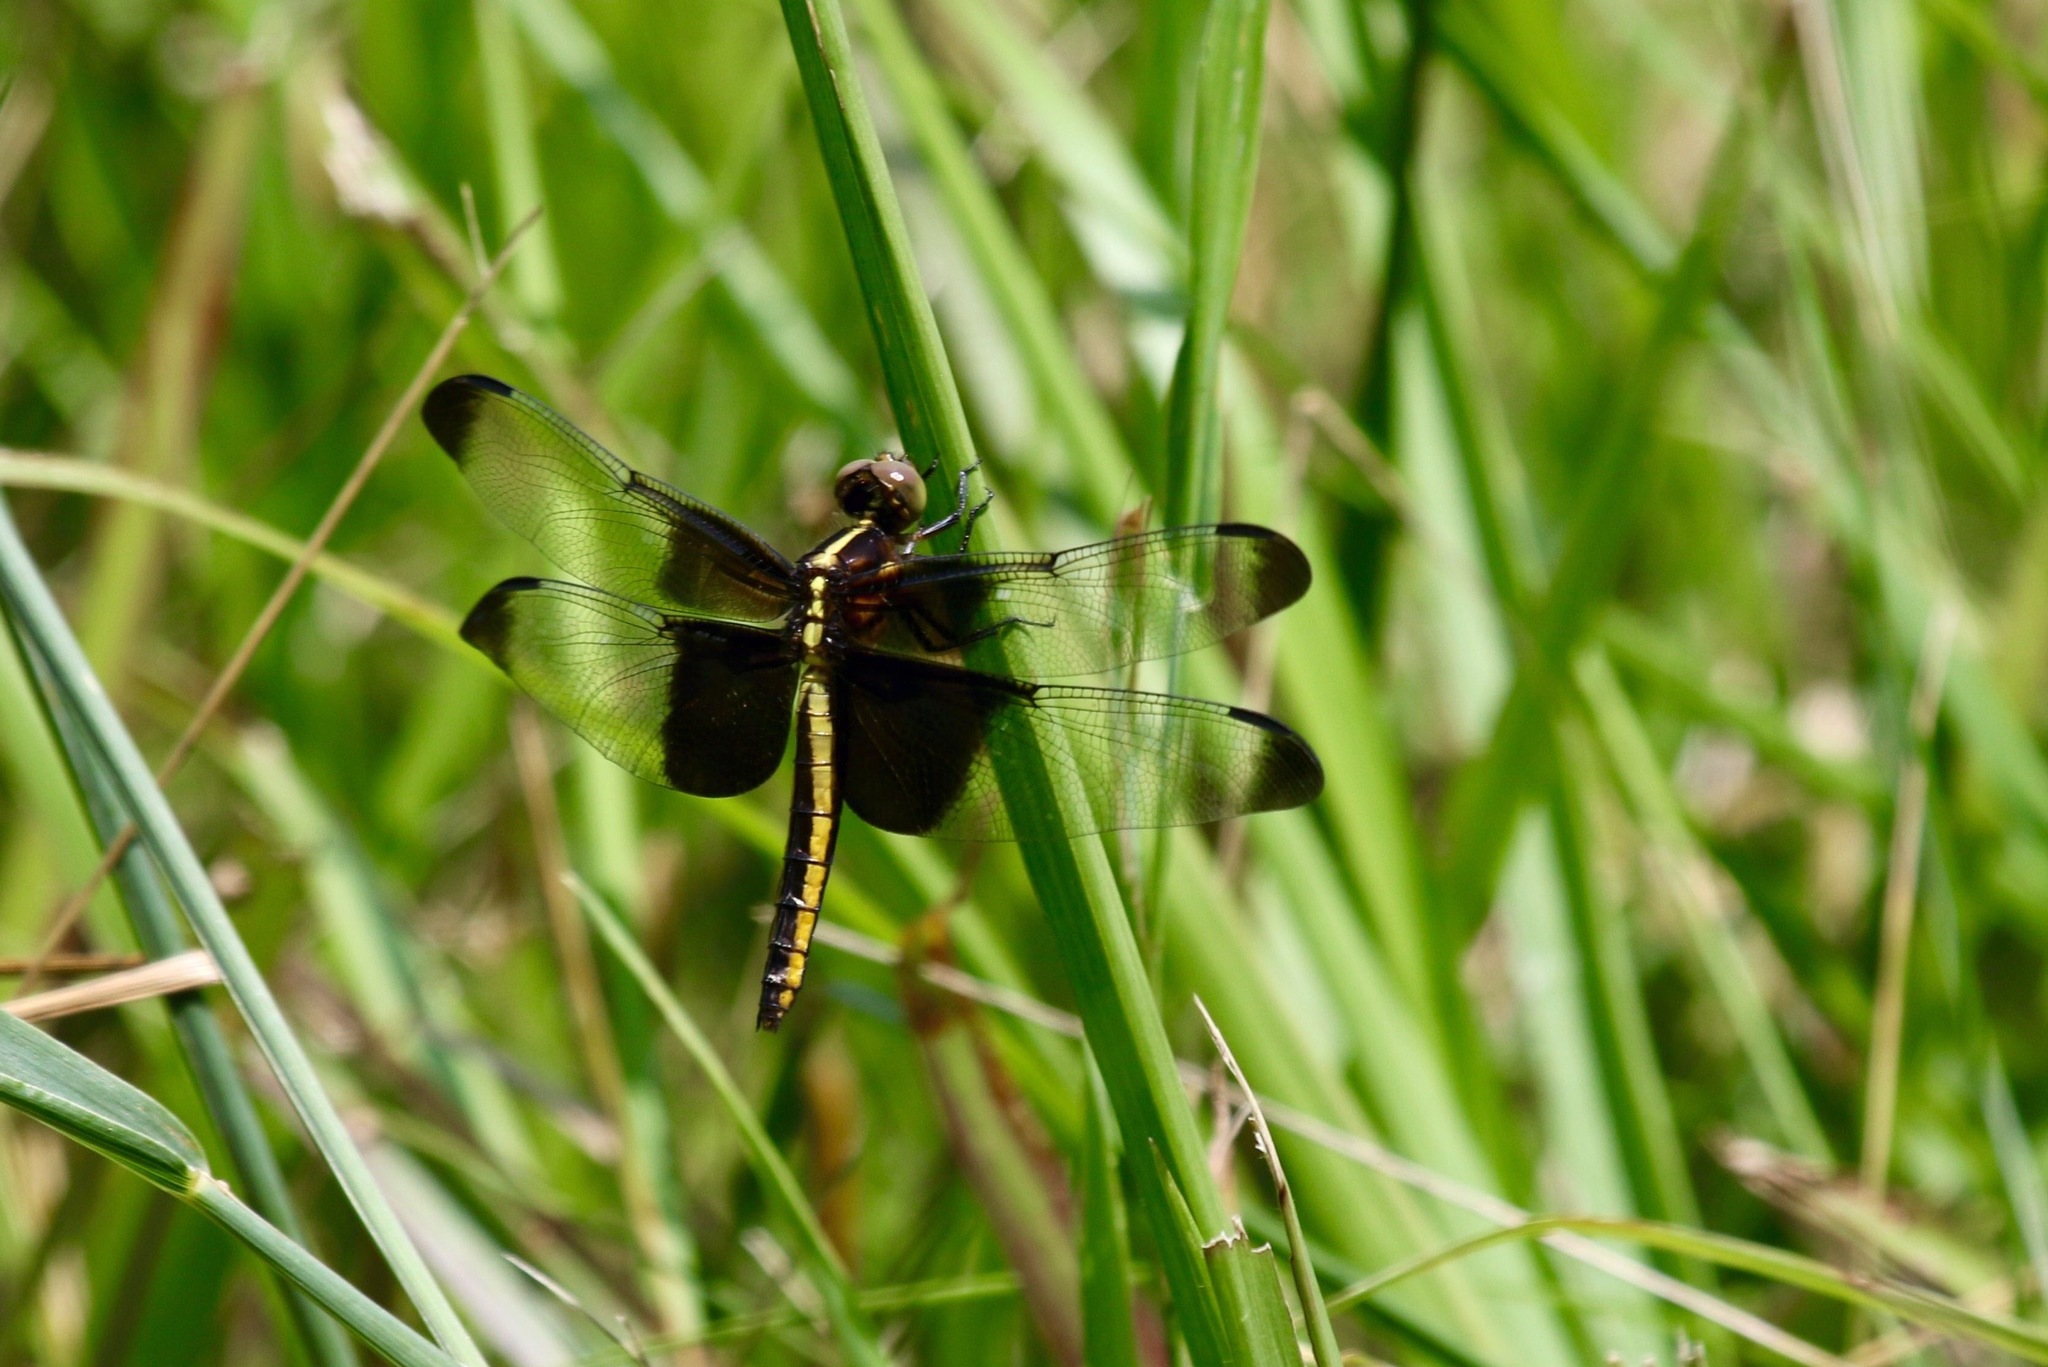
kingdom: Animalia
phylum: Arthropoda
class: Insecta
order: Odonata
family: Libellulidae
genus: Libellula
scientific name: Libellula luctuosa
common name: Widow skimmer
